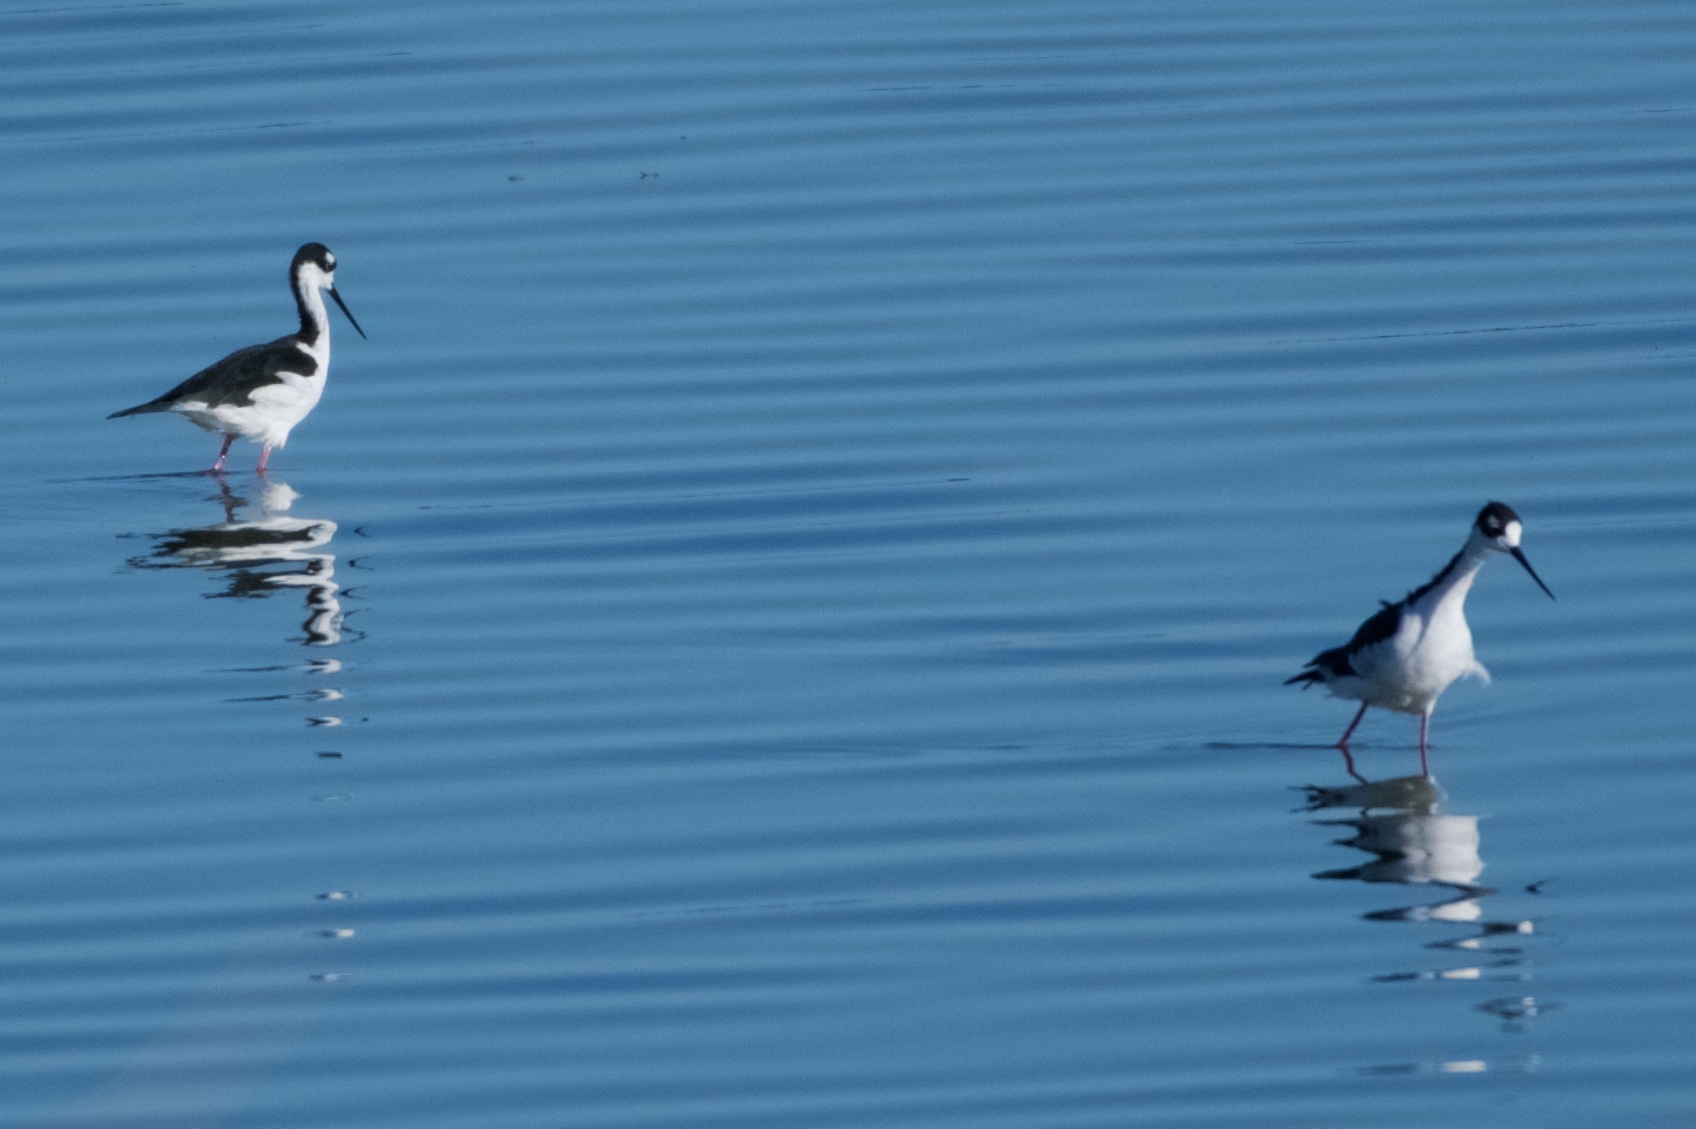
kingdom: Animalia
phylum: Chordata
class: Aves
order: Charadriiformes
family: Recurvirostridae
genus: Himantopus
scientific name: Himantopus mexicanus
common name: Black-necked stilt
